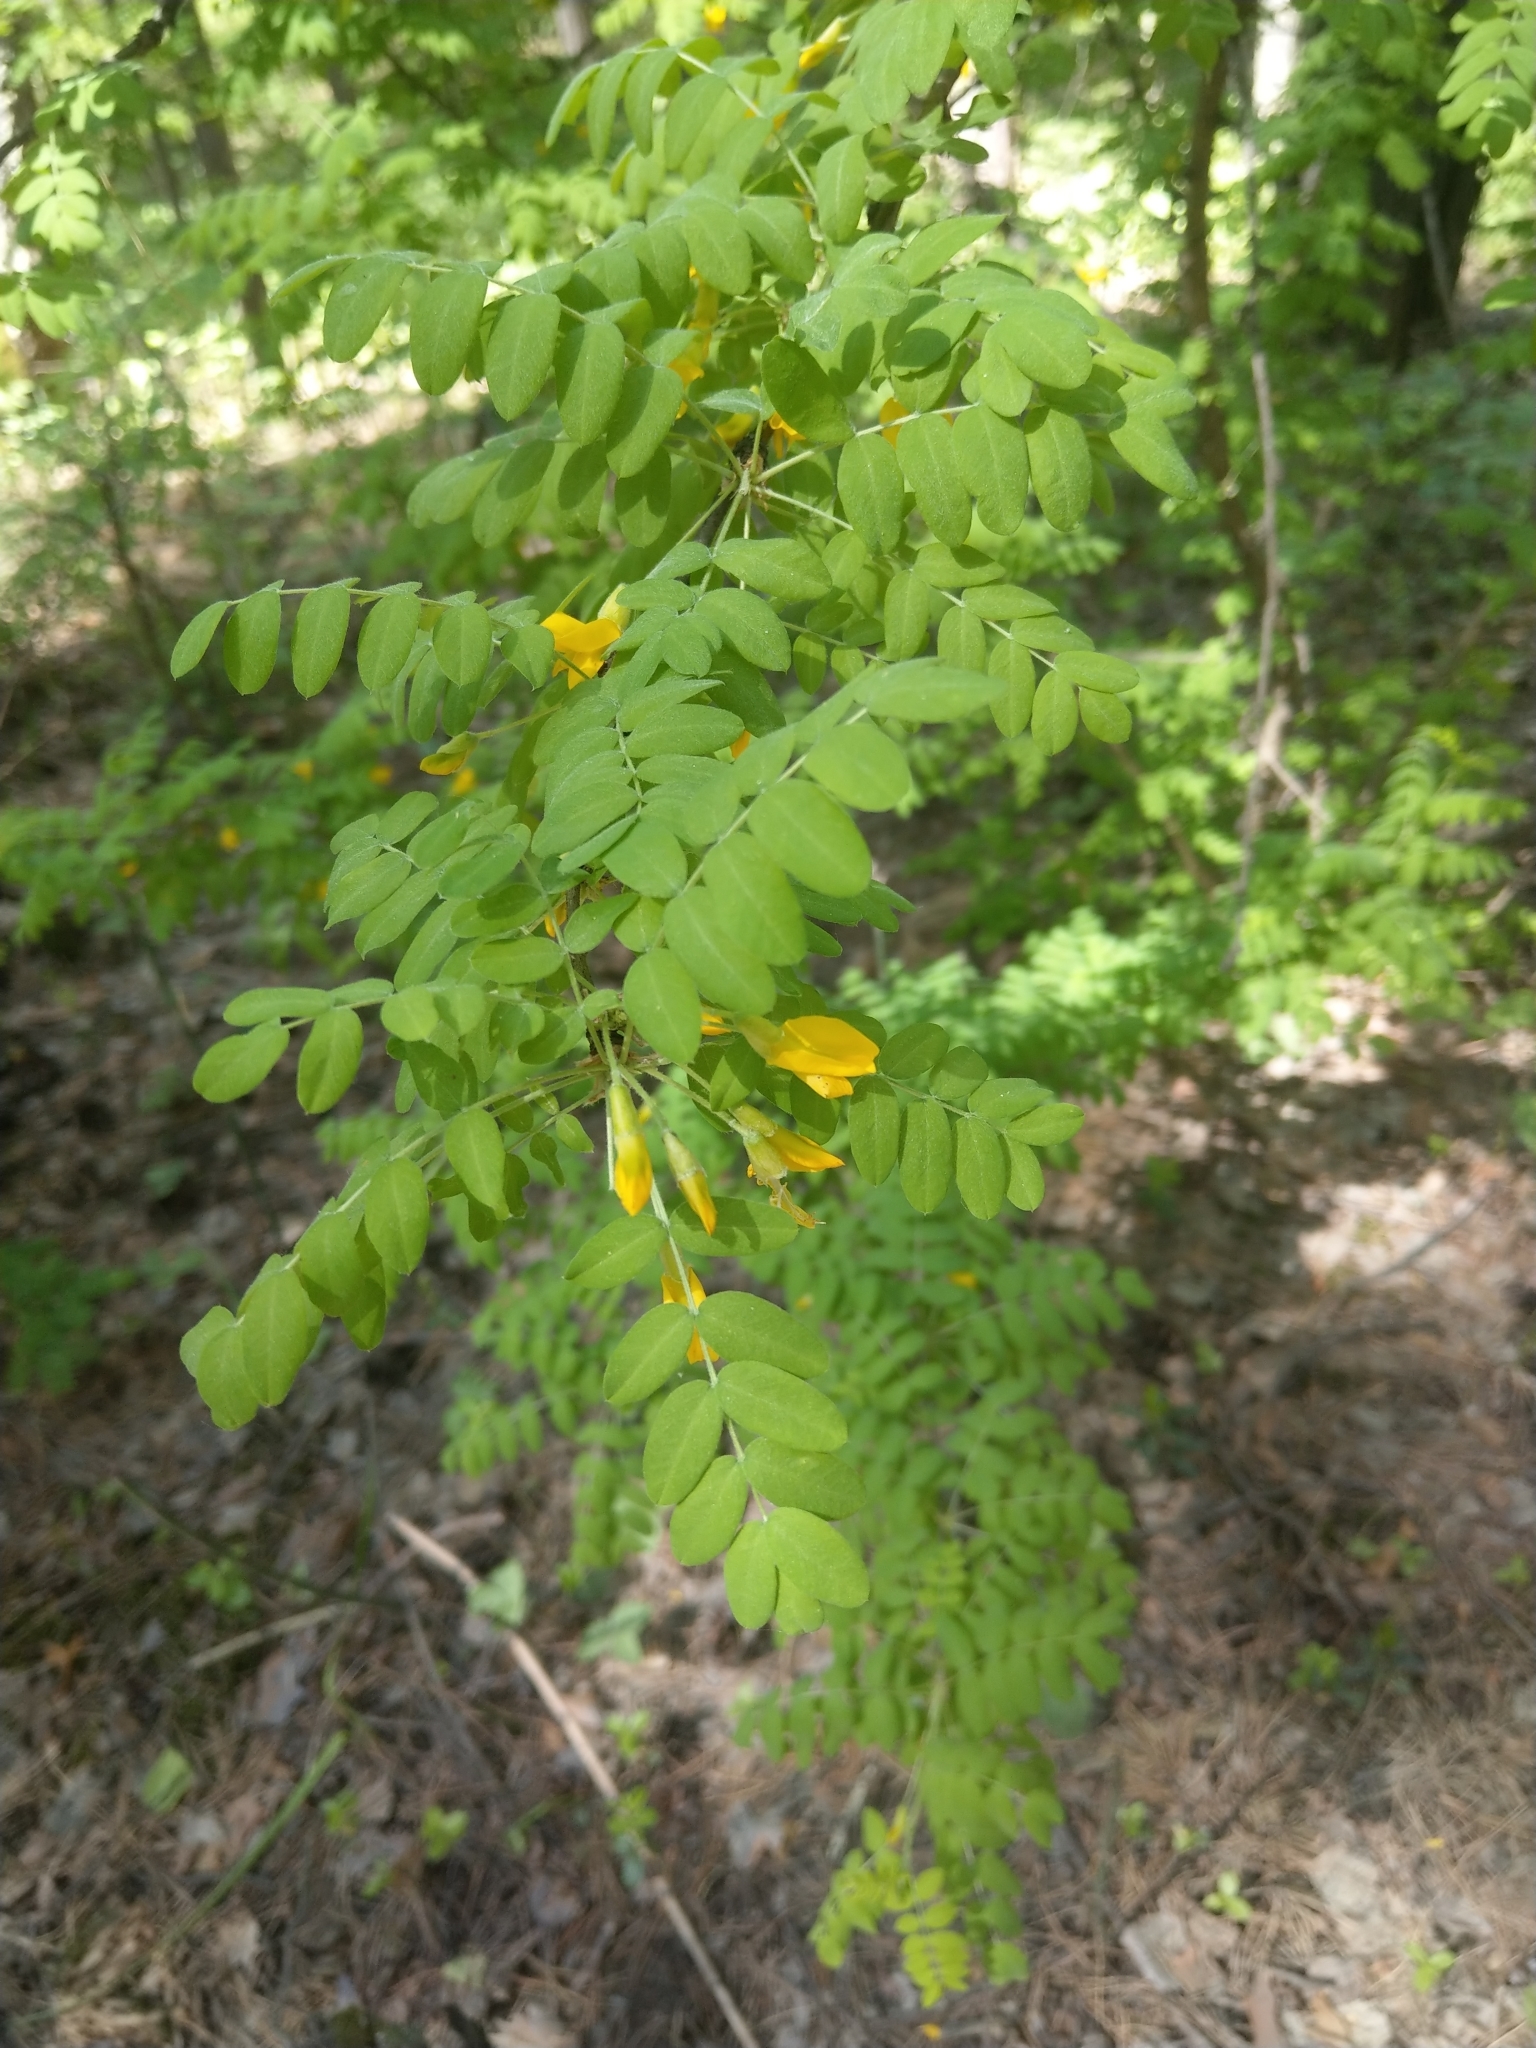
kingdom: Plantae
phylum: Tracheophyta
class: Magnoliopsida
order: Fabales
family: Fabaceae
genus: Caragana
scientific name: Caragana arborescens
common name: Siberian peashrub
